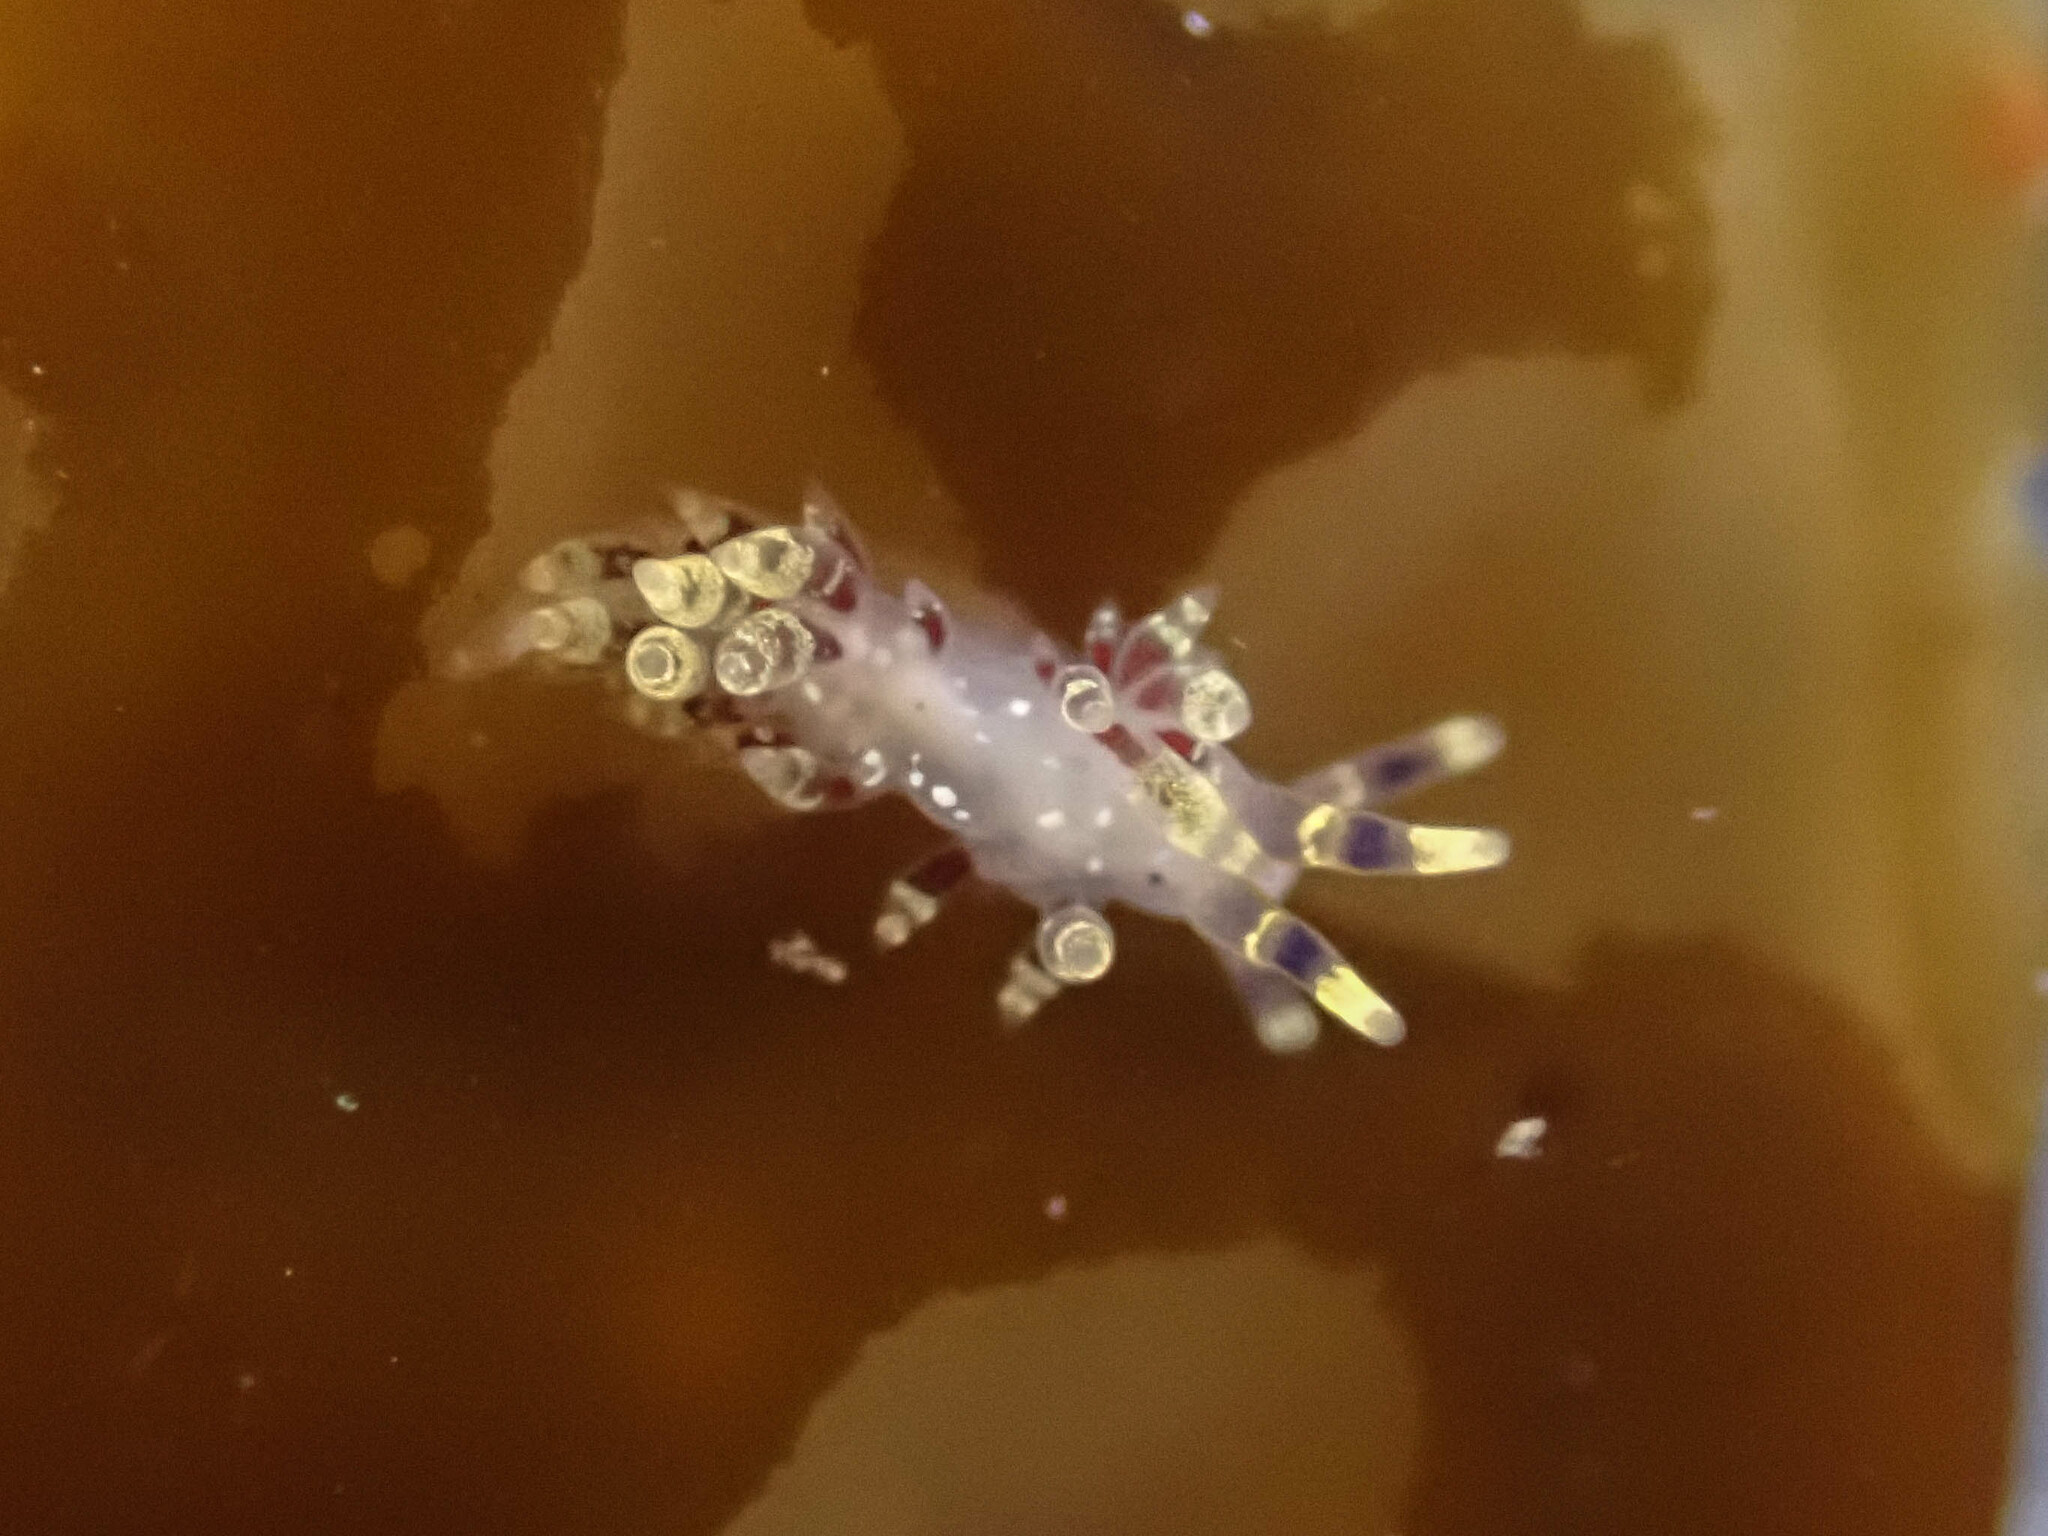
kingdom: Animalia
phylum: Mollusca
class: Gastropoda
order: Nudibranchia
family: Abronicidae
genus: Abronica
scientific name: Abronica abronia
